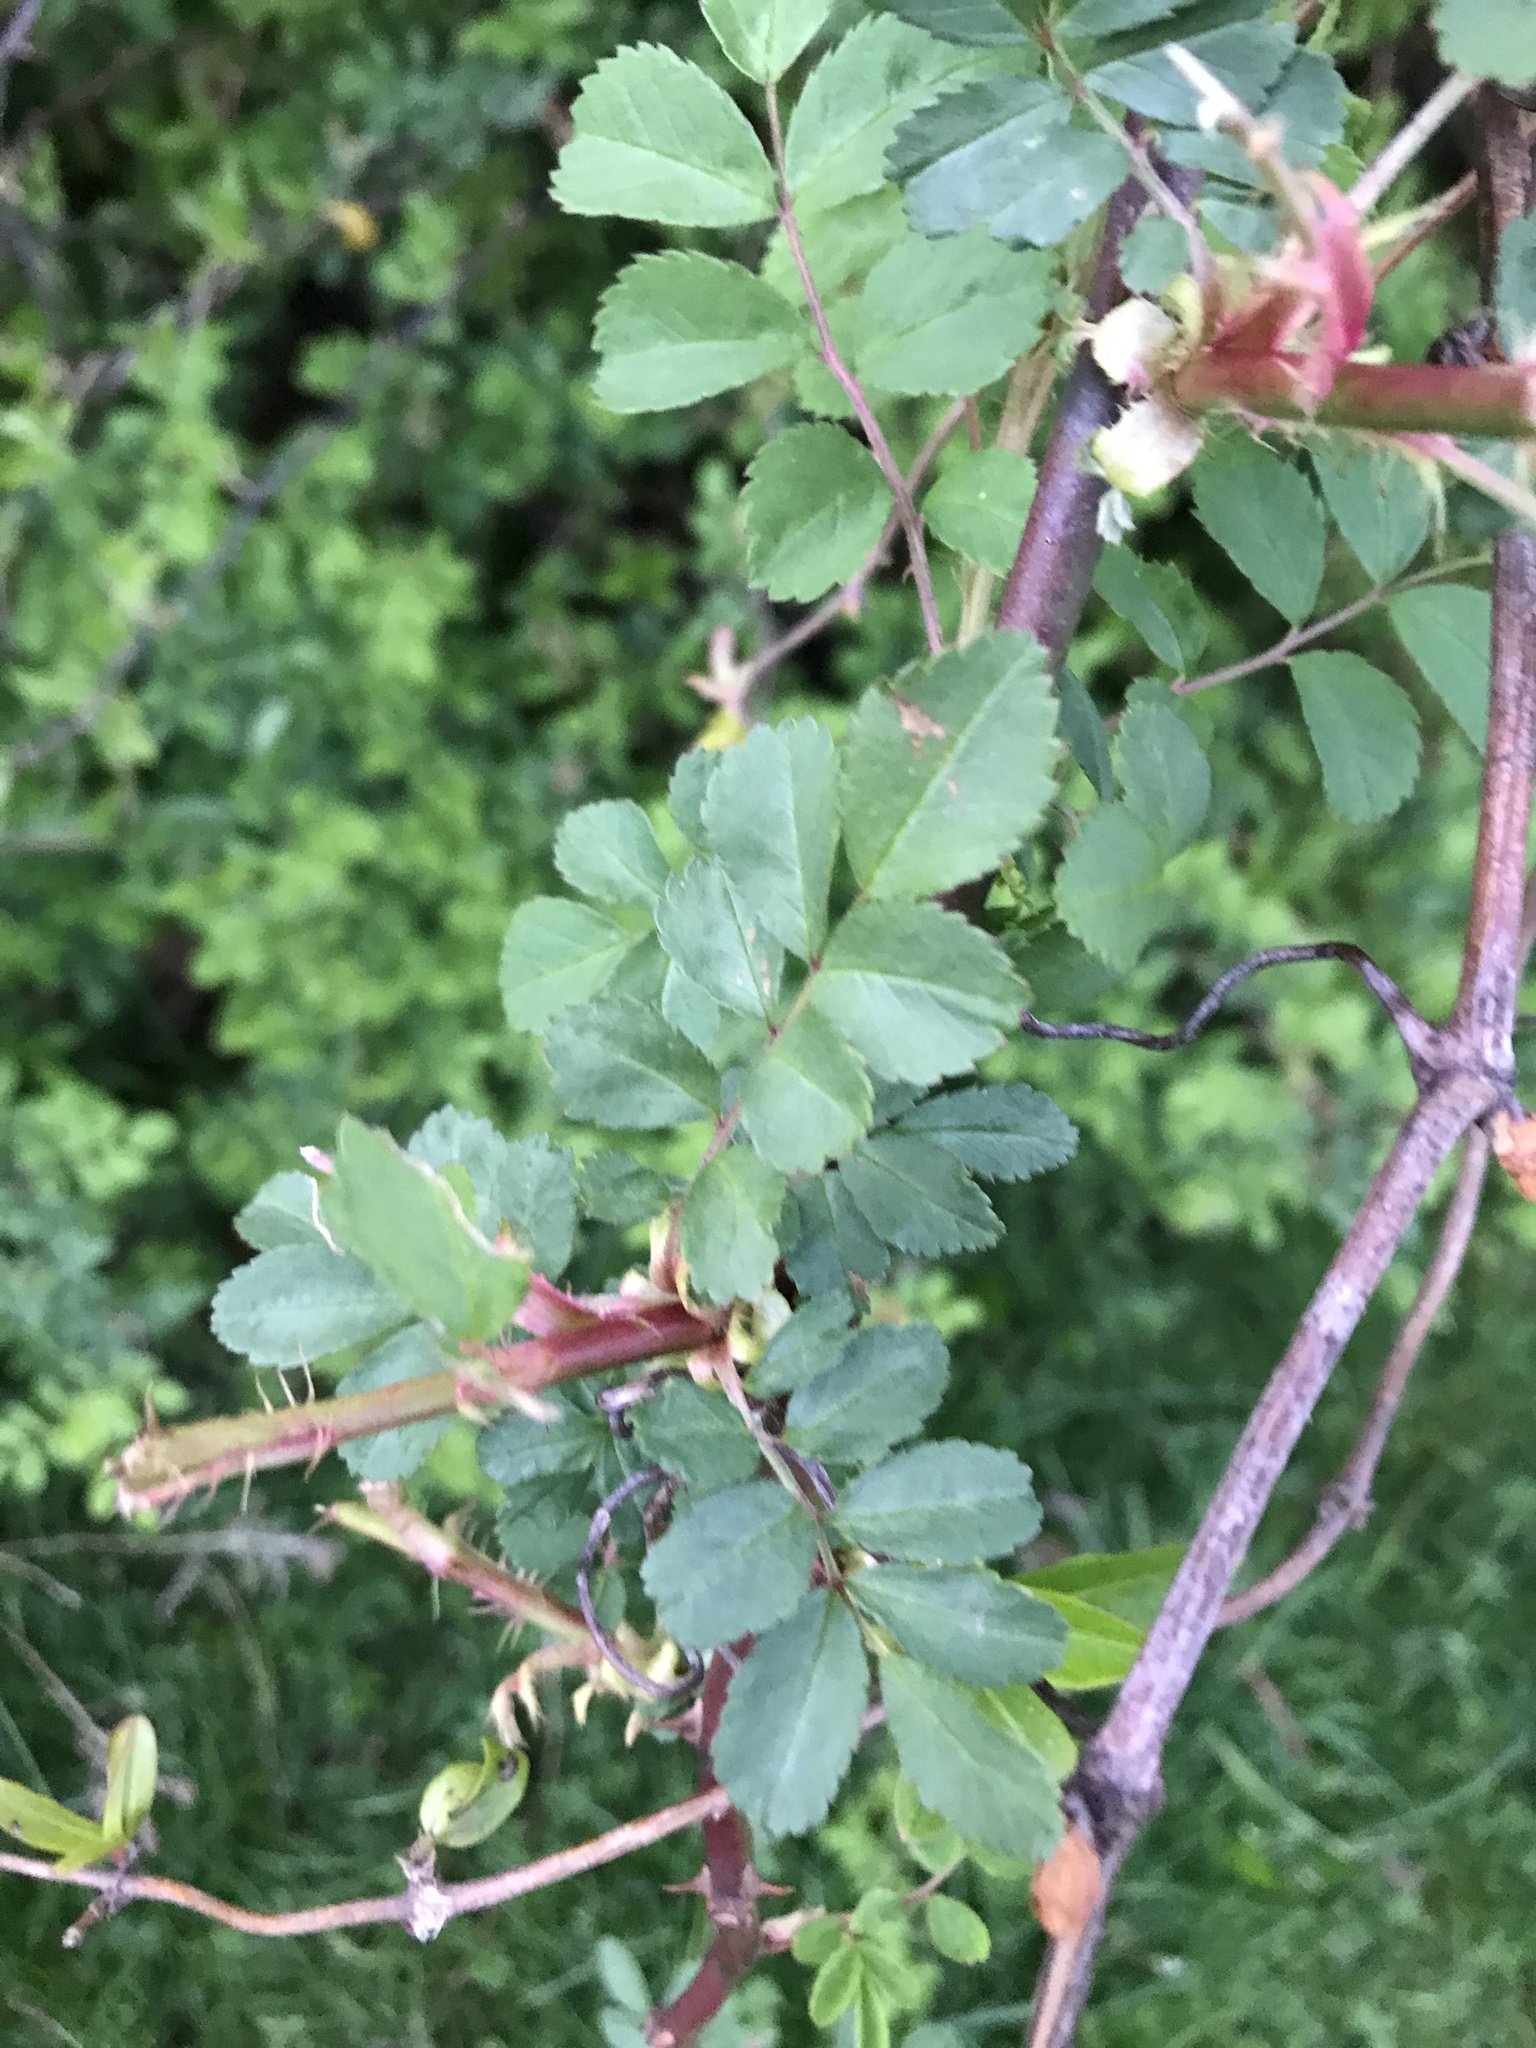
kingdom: Plantae
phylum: Tracheophyta
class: Magnoliopsida
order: Rosales
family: Rosaceae
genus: Rosa
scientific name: Rosa multiflora
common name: Multiflora rose
